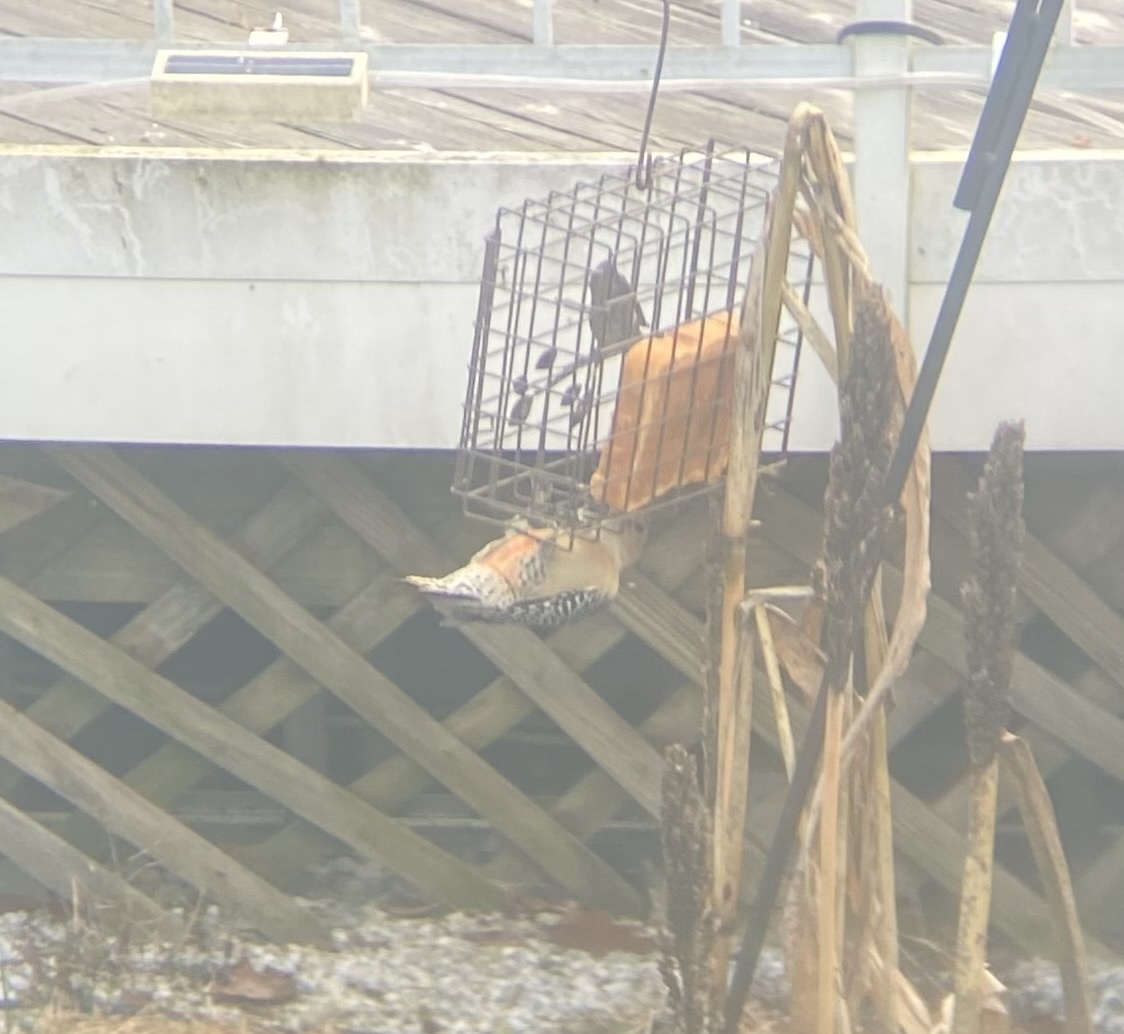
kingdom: Animalia
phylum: Chordata
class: Aves
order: Piciformes
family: Picidae
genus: Melanerpes
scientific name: Melanerpes carolinus
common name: Red-bellied woodpecker
